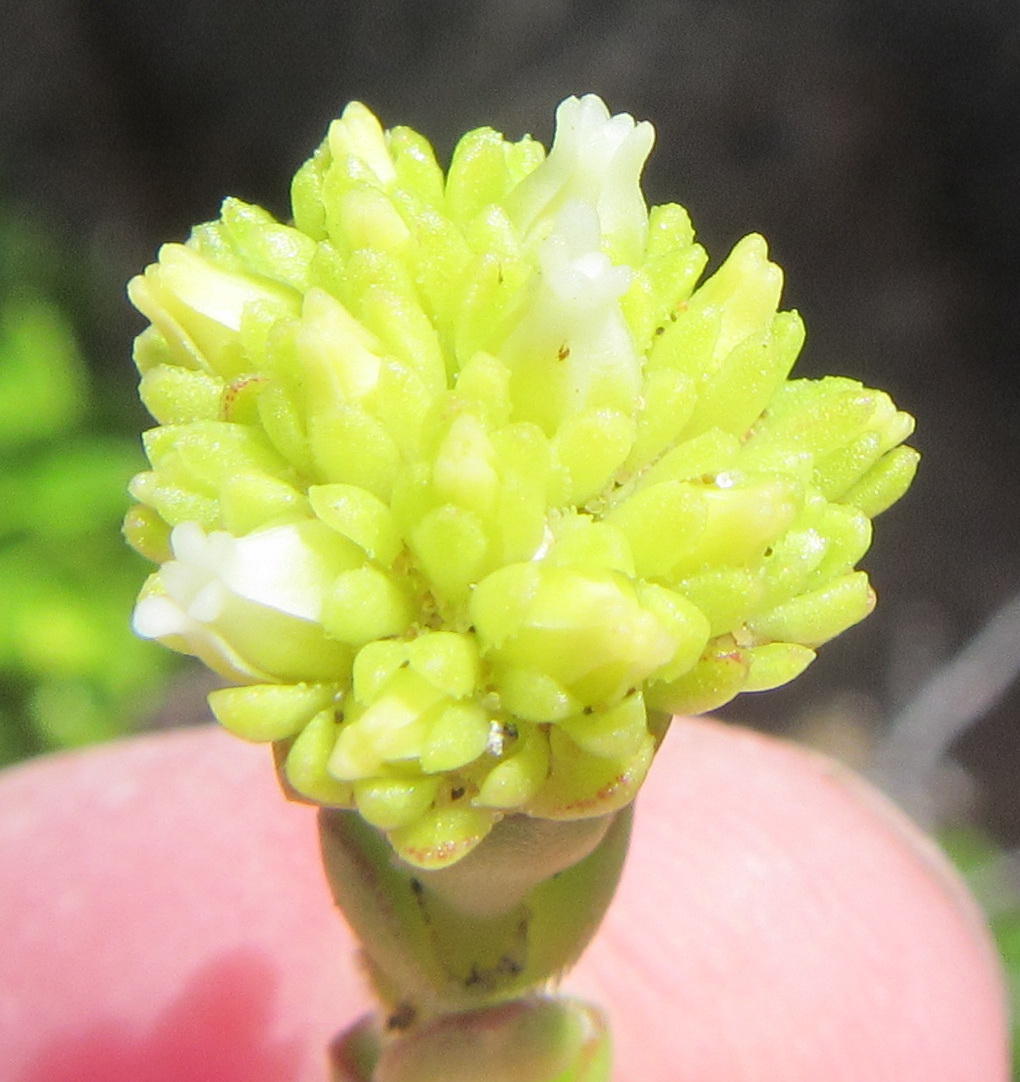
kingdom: Plantae
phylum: Tracheophyta
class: Magnoliopsida
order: Saxifragales
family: Crassulaceae
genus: Crassula
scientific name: Crassula subulata
